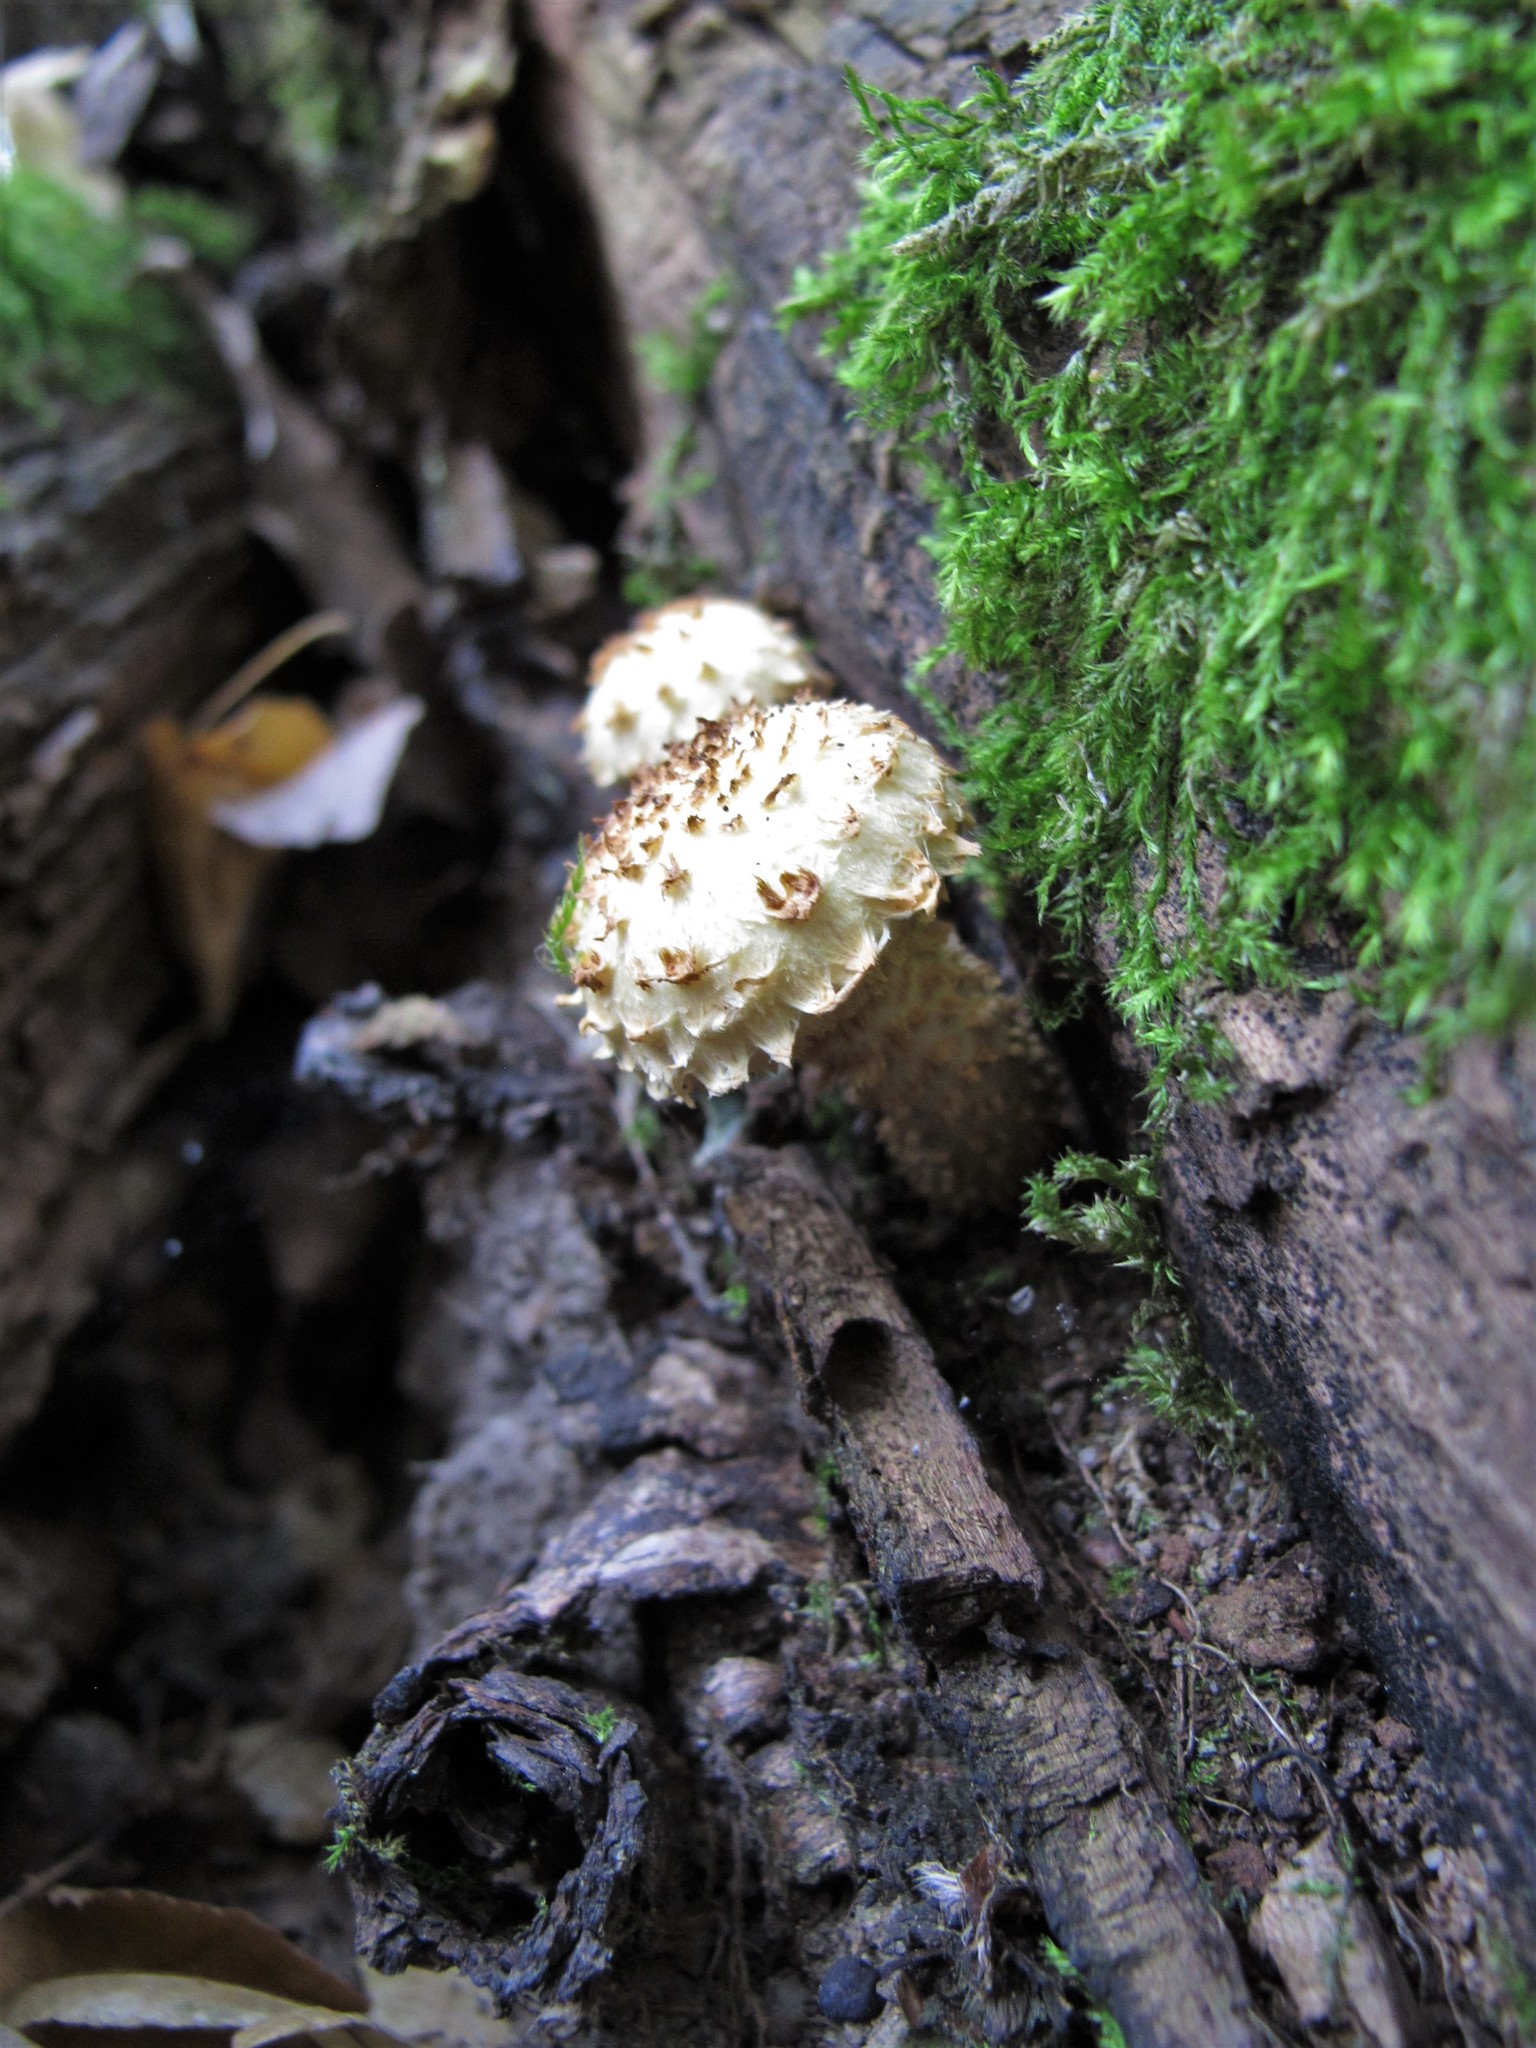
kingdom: Fungi
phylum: Basidiomycota
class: Agaricomycetes
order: Agaricales
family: Strophariaceae
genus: Pholiota
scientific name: Pholiota squarrosa
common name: Shaggy pholiota
